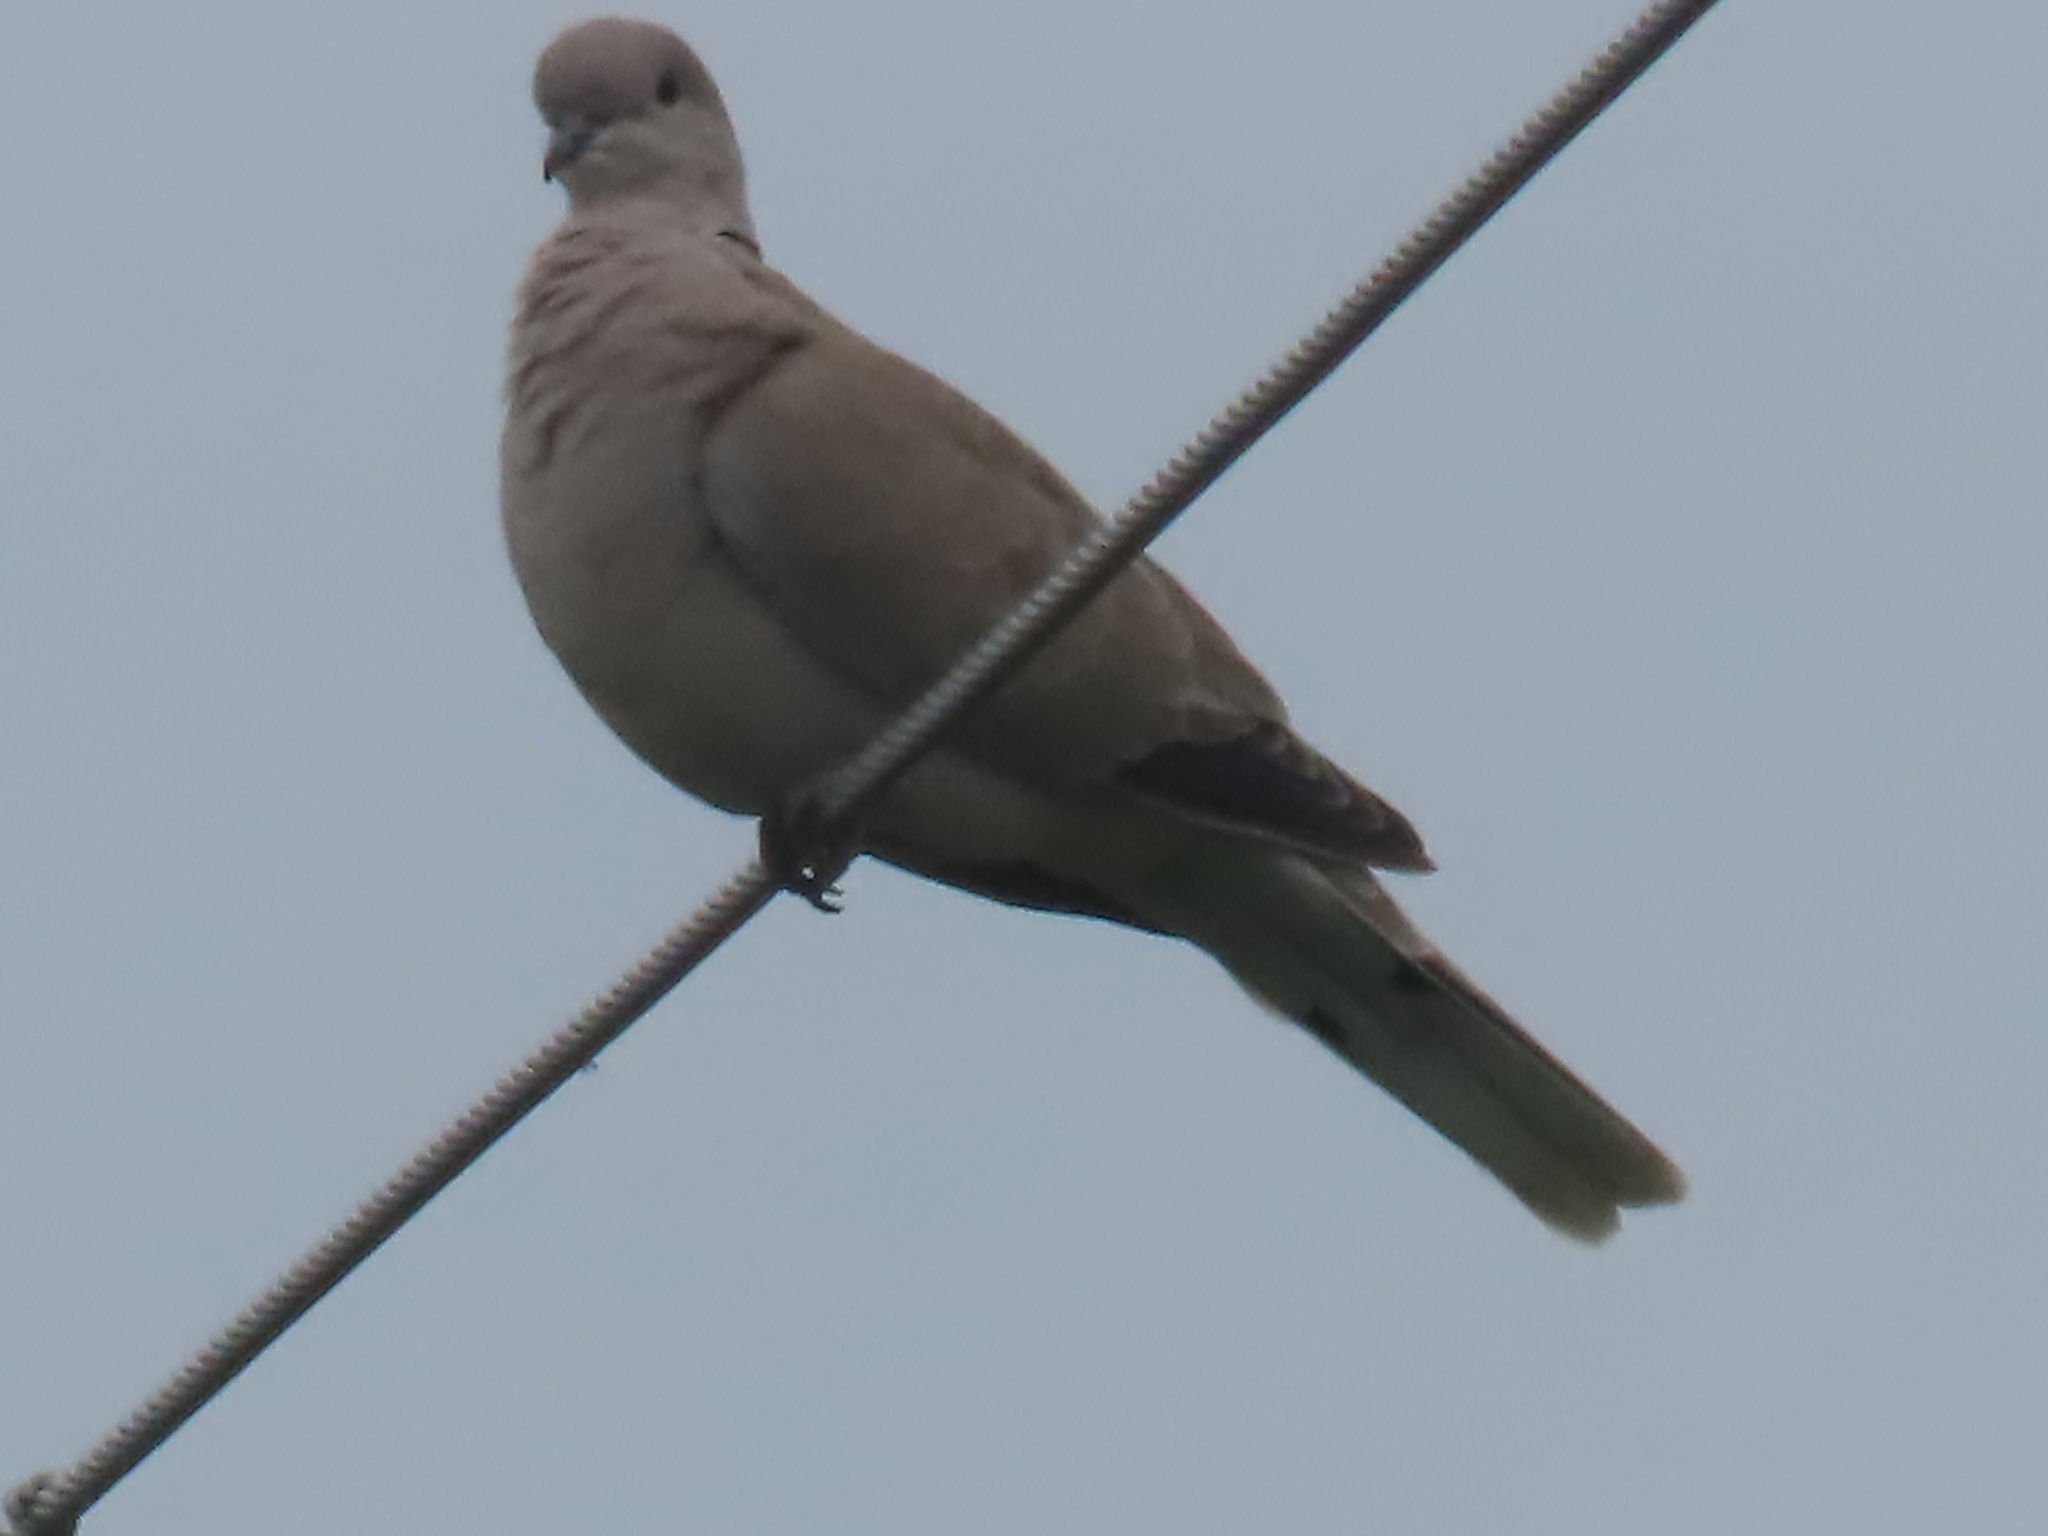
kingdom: Animalia
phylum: Chordata
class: Aves
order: Columbiformes
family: Columbidae
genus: Streptopelia
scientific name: Streptopelia decaocto
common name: Eurasian collared dove
